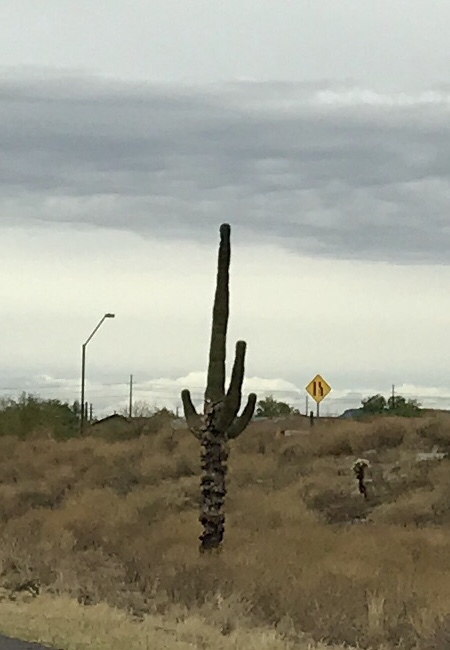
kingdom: Plantae
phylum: Tracheophyta
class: Magnoliopsida
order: Caryophyllales
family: Cactaceae
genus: Carnegiea
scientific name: Carnegiea gigantea
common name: Saguaro
